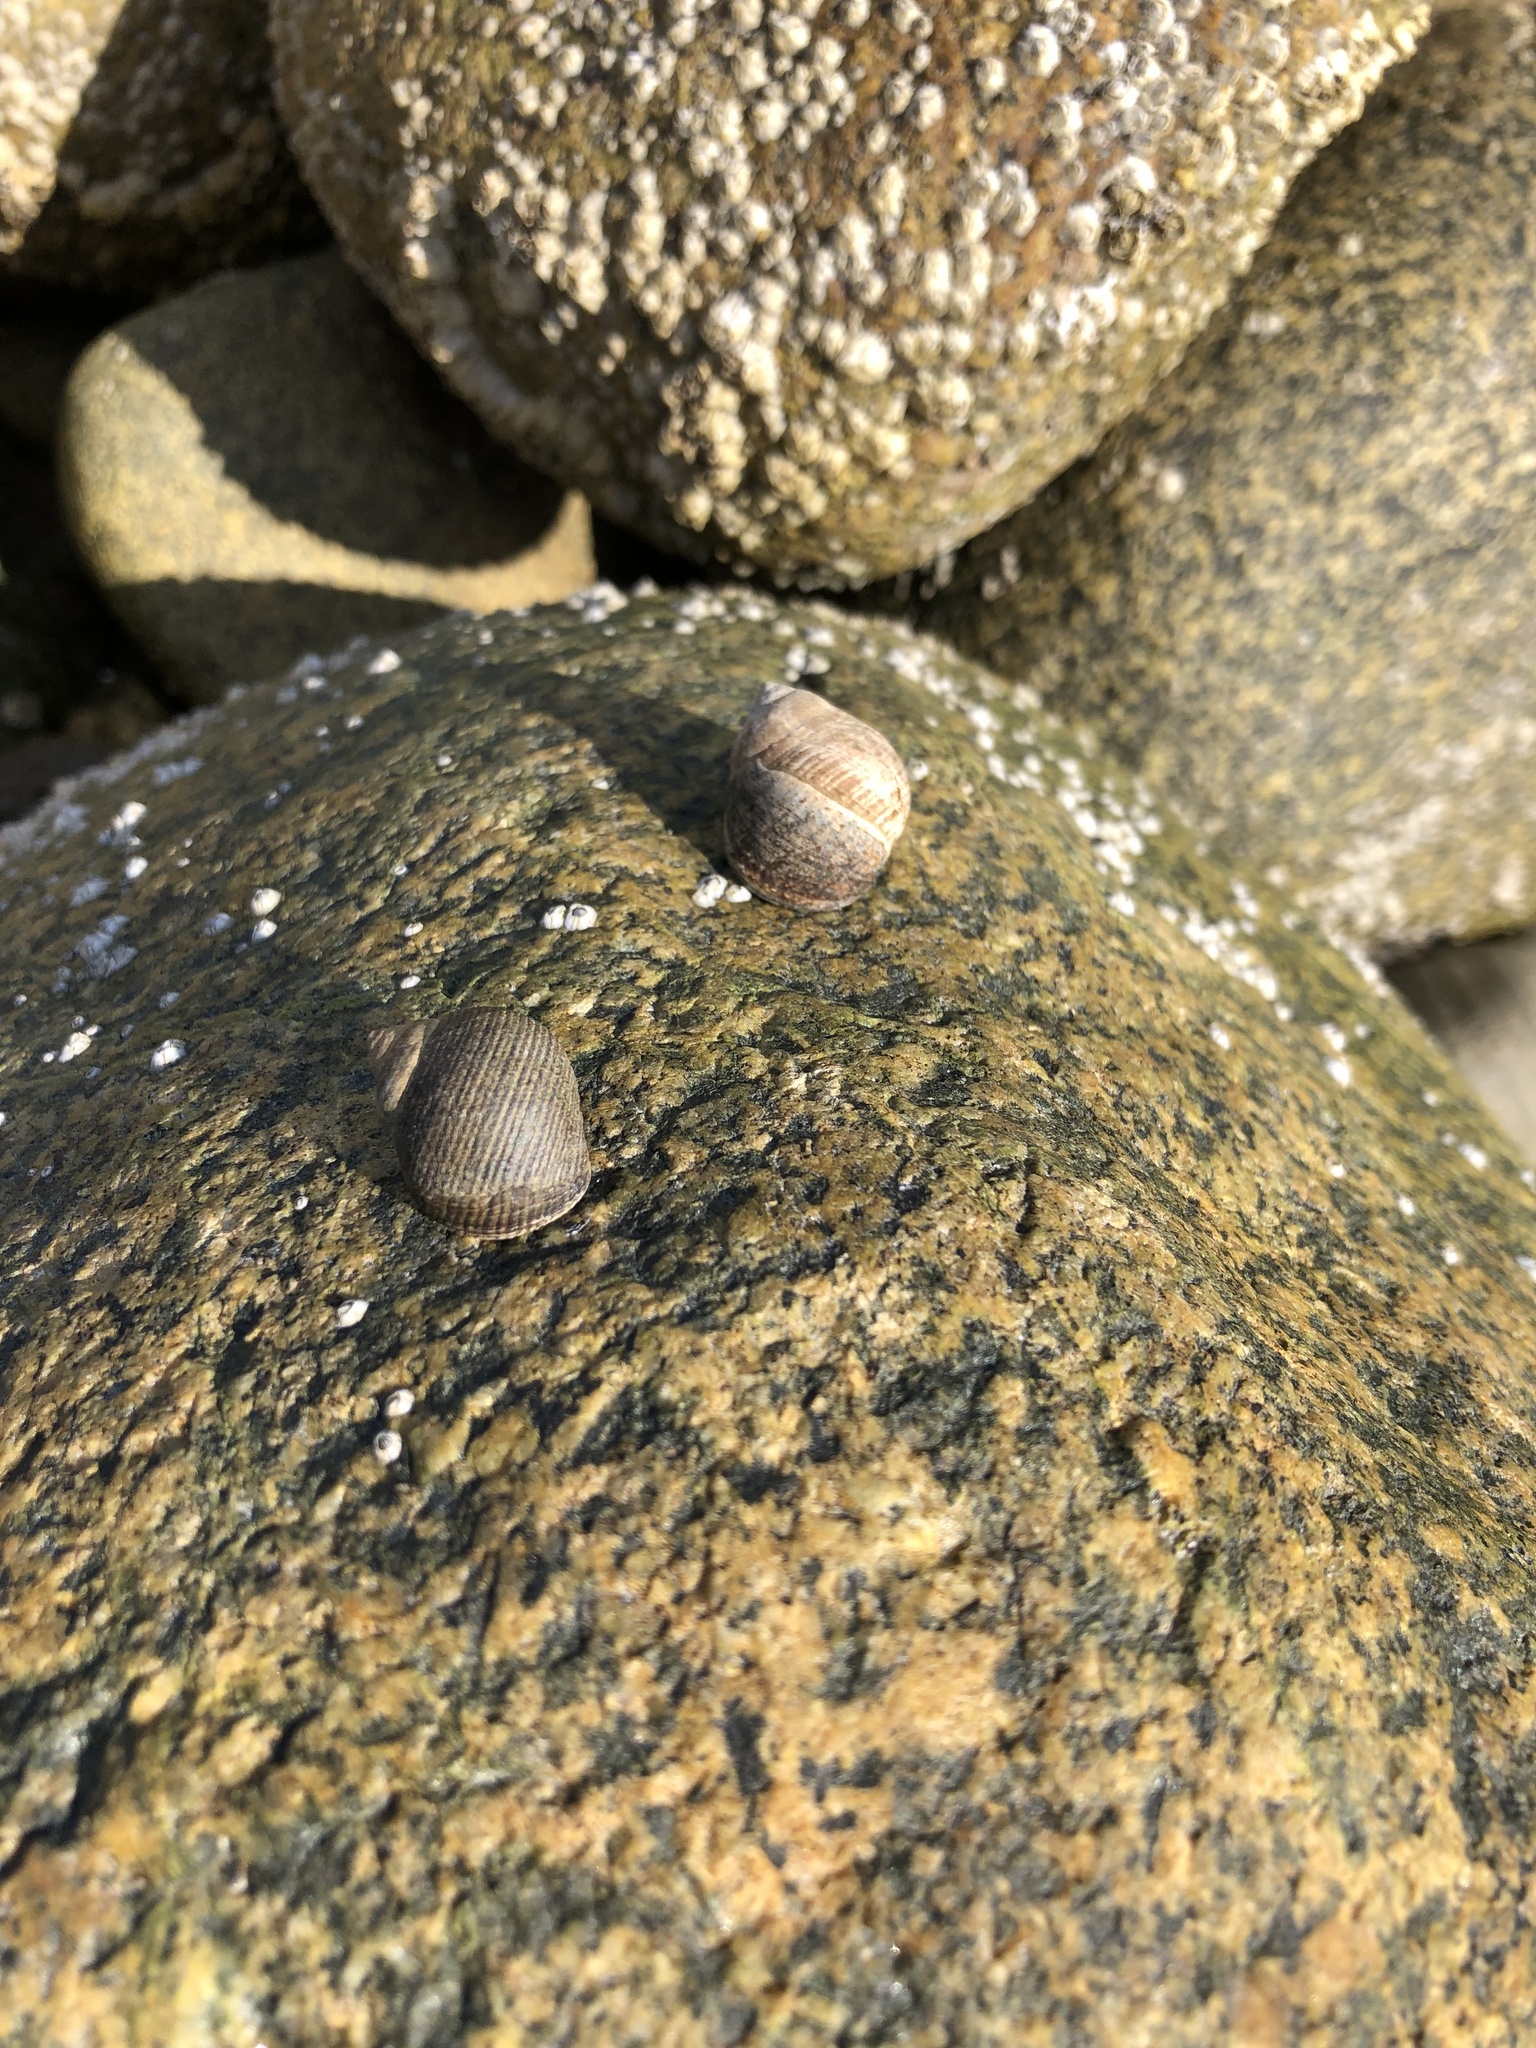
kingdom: Animalia
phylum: Mollusca
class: Gastropoda
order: Littorinimorpha
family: Littorinidae
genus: Littorina
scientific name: Littorina littorea
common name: Common periwinkle
